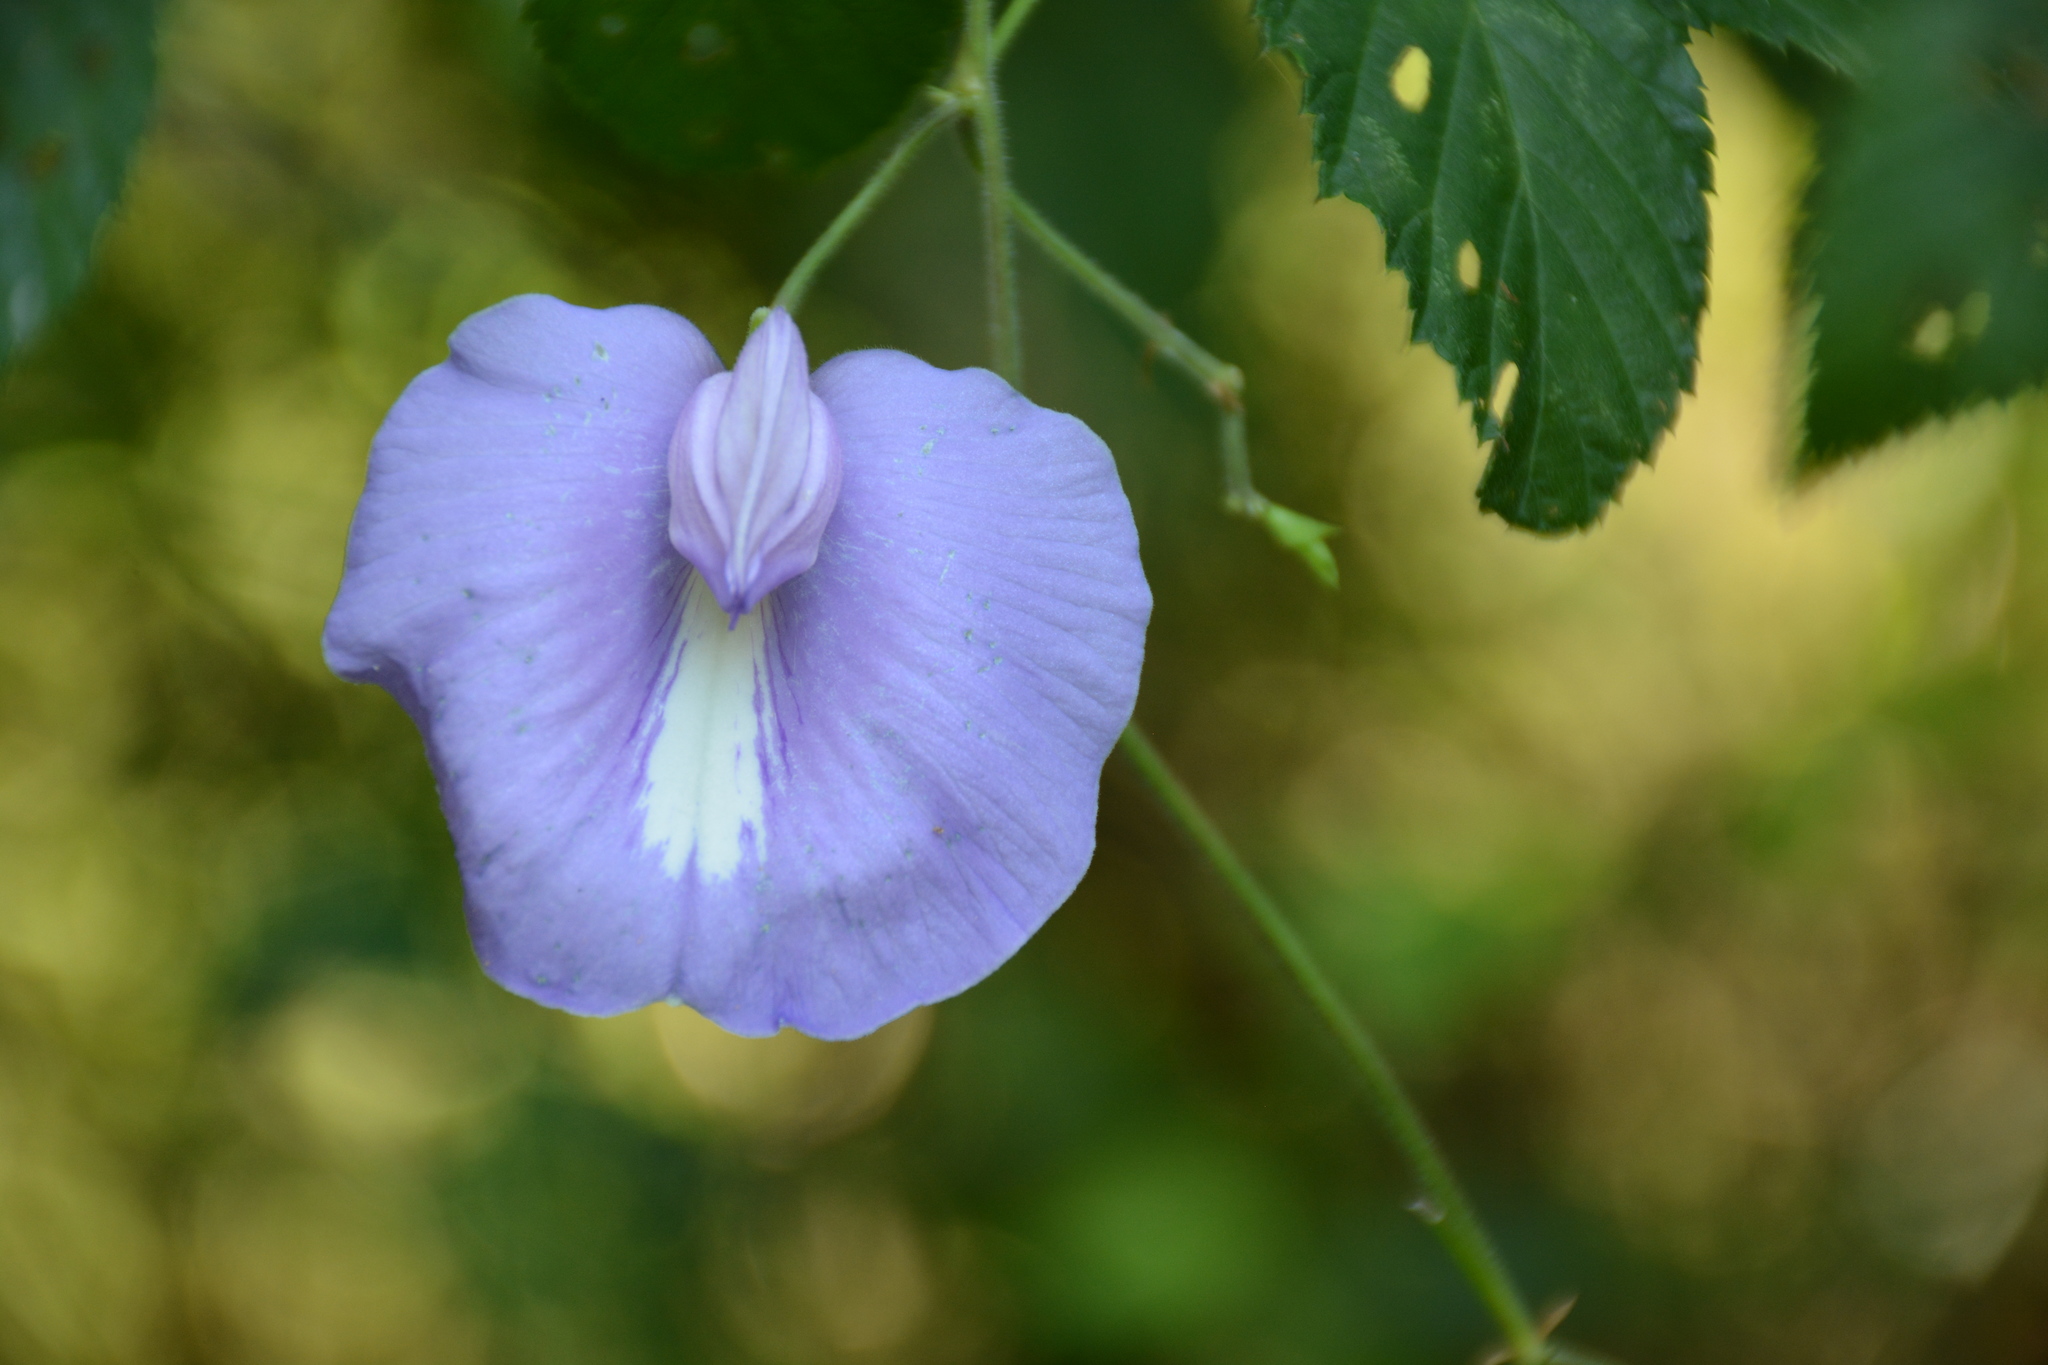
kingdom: Plantae
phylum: Tracheophyta
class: Magnoliopsida
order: Fabales
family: Fabaceae
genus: Centrosema
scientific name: Centrosema virginianum
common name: Butterfly-pea
